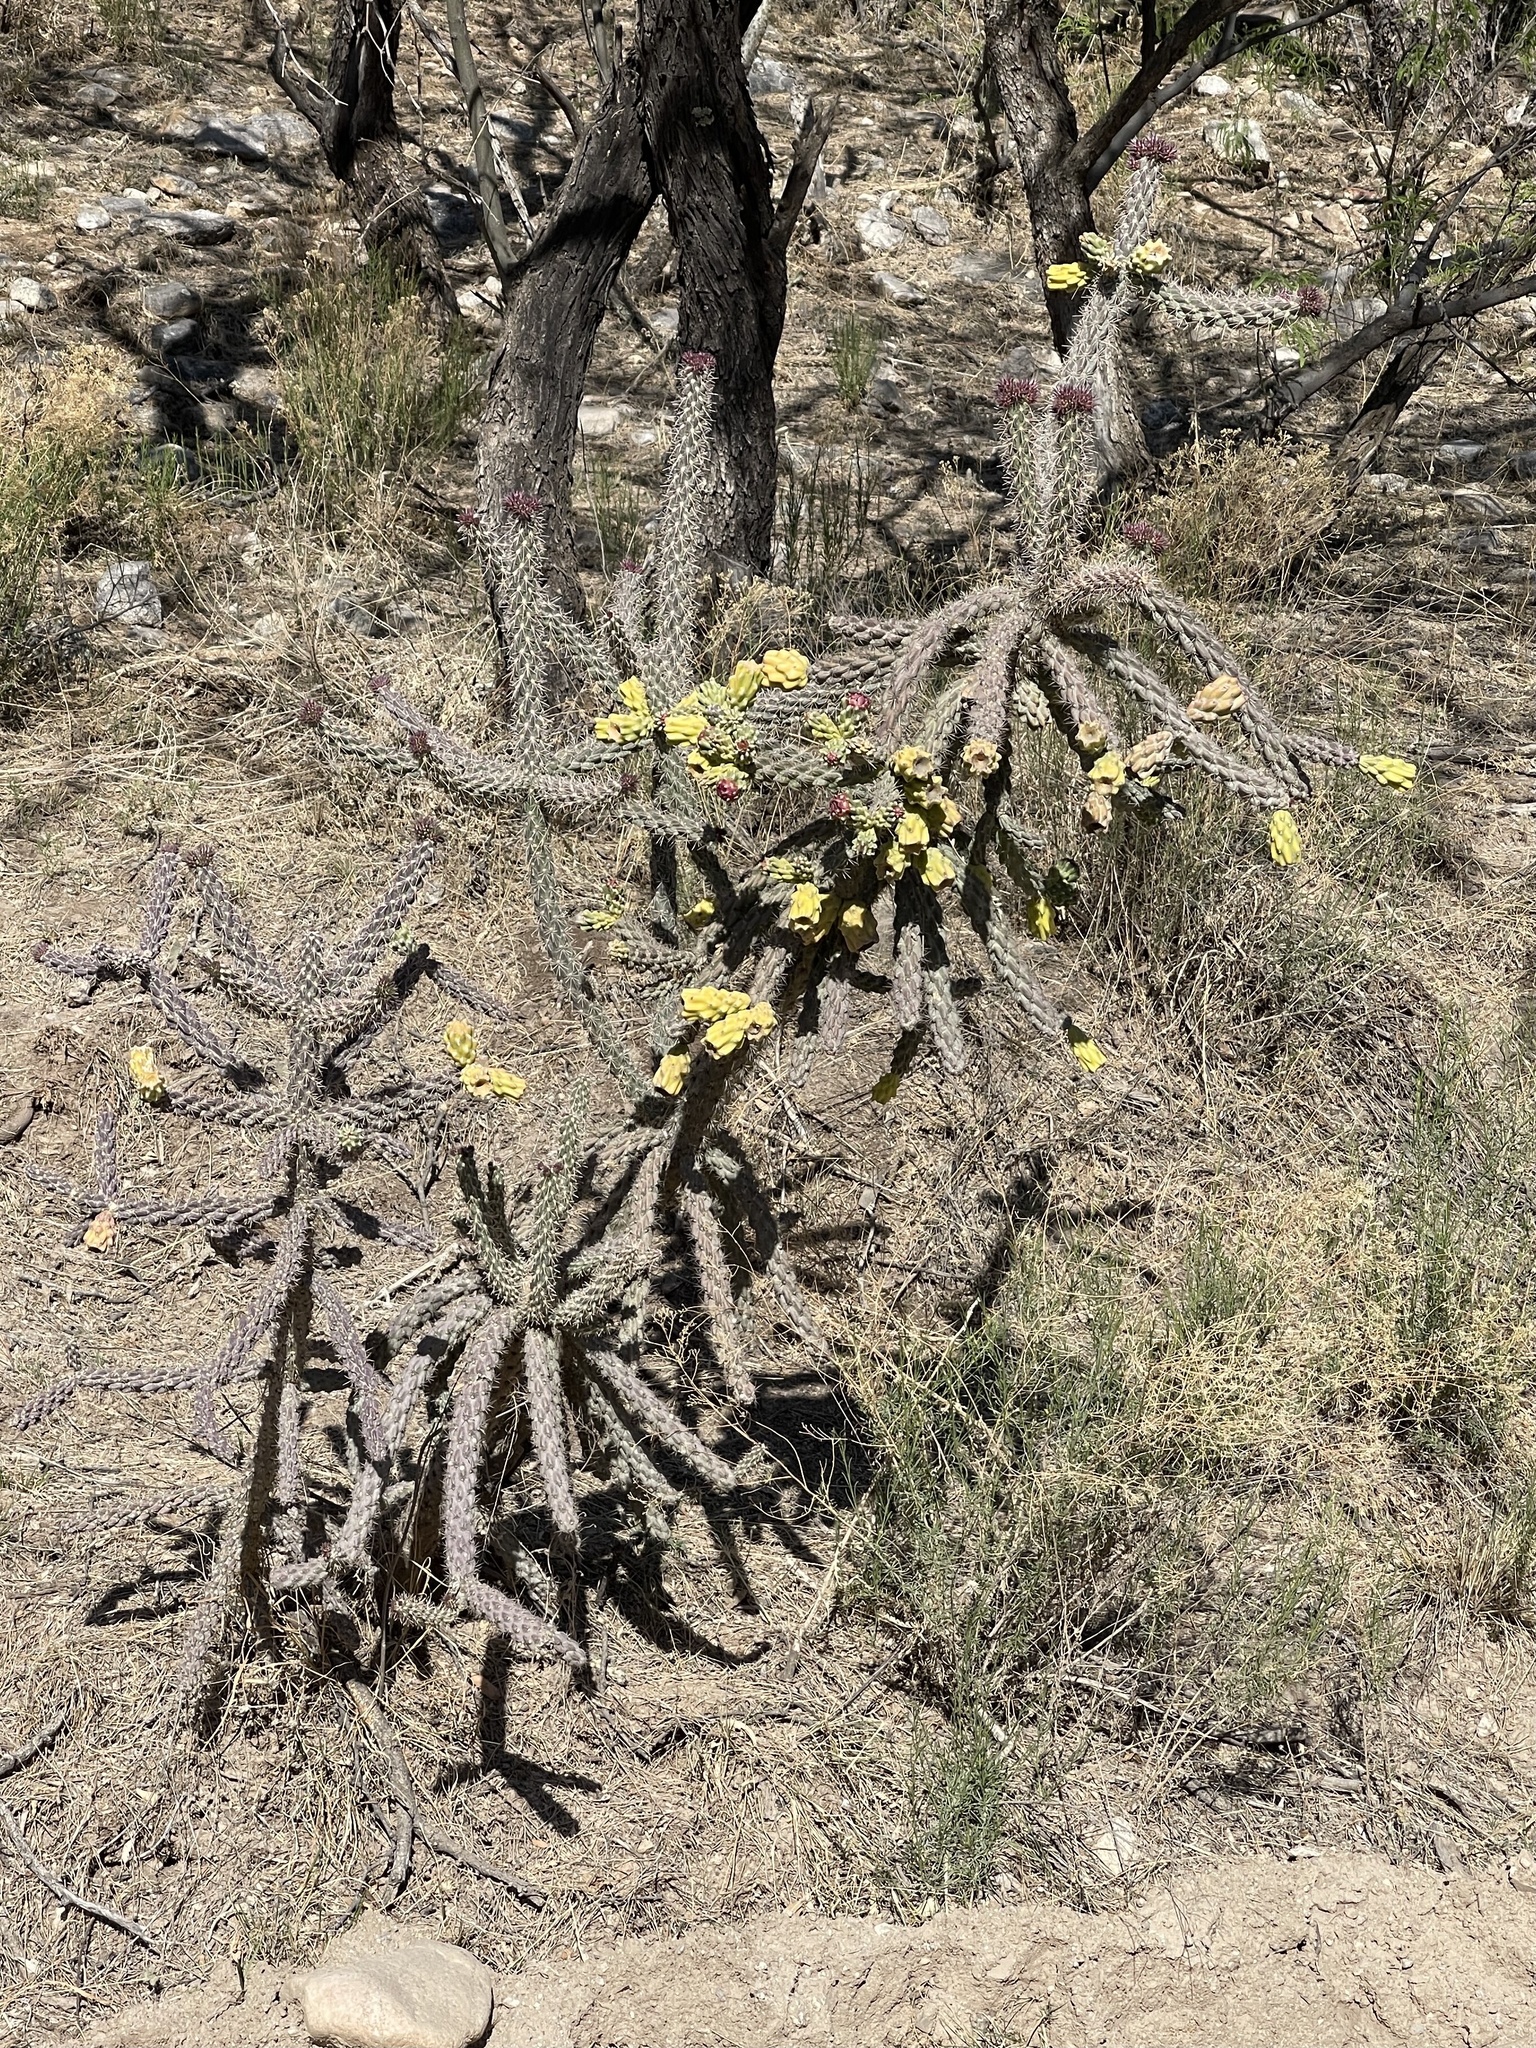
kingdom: Plantae
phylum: Tracheophyta
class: Magnoliopsida
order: Caryophyllales
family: Cactaceae
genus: Cylindropuntia
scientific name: Cylindropuntia imbricata
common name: Candelabrum cactus
